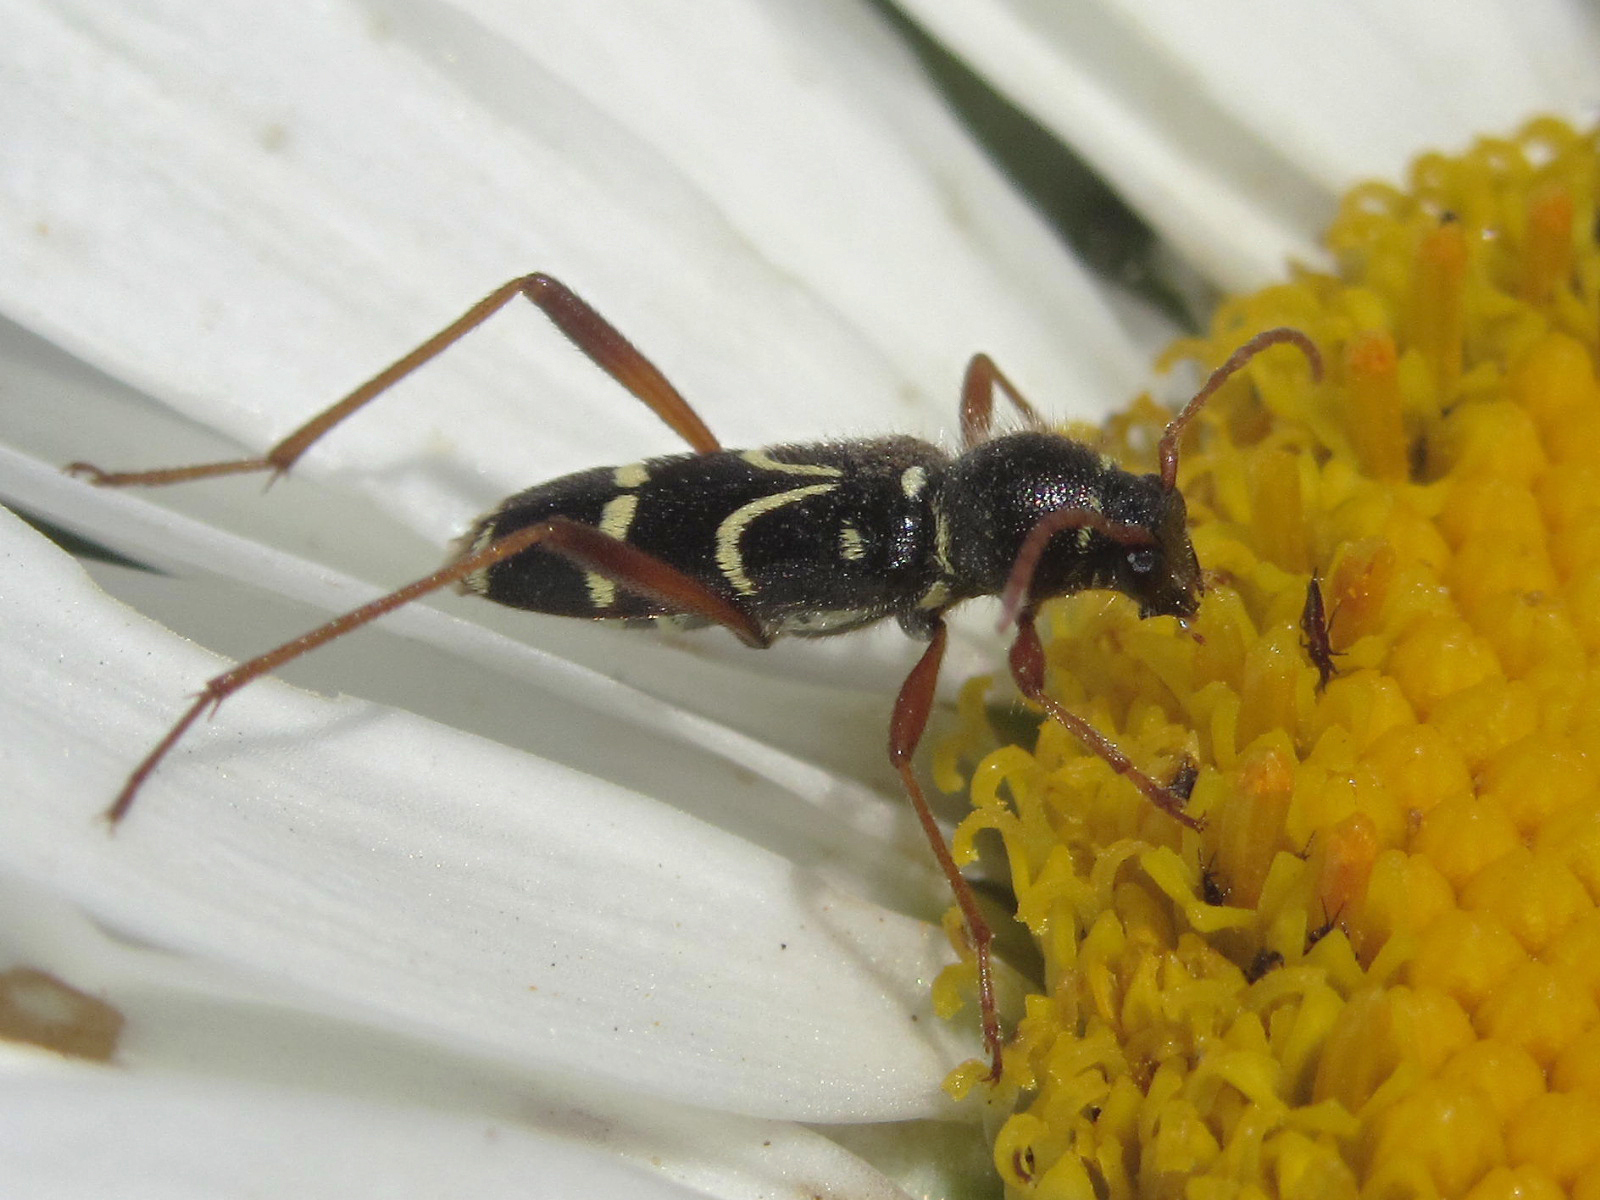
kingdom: Animalia
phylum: Arthropoda
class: Insecta
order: Coleoptera
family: Cerambycidae
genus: Clytus
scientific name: Clytus rhamni
